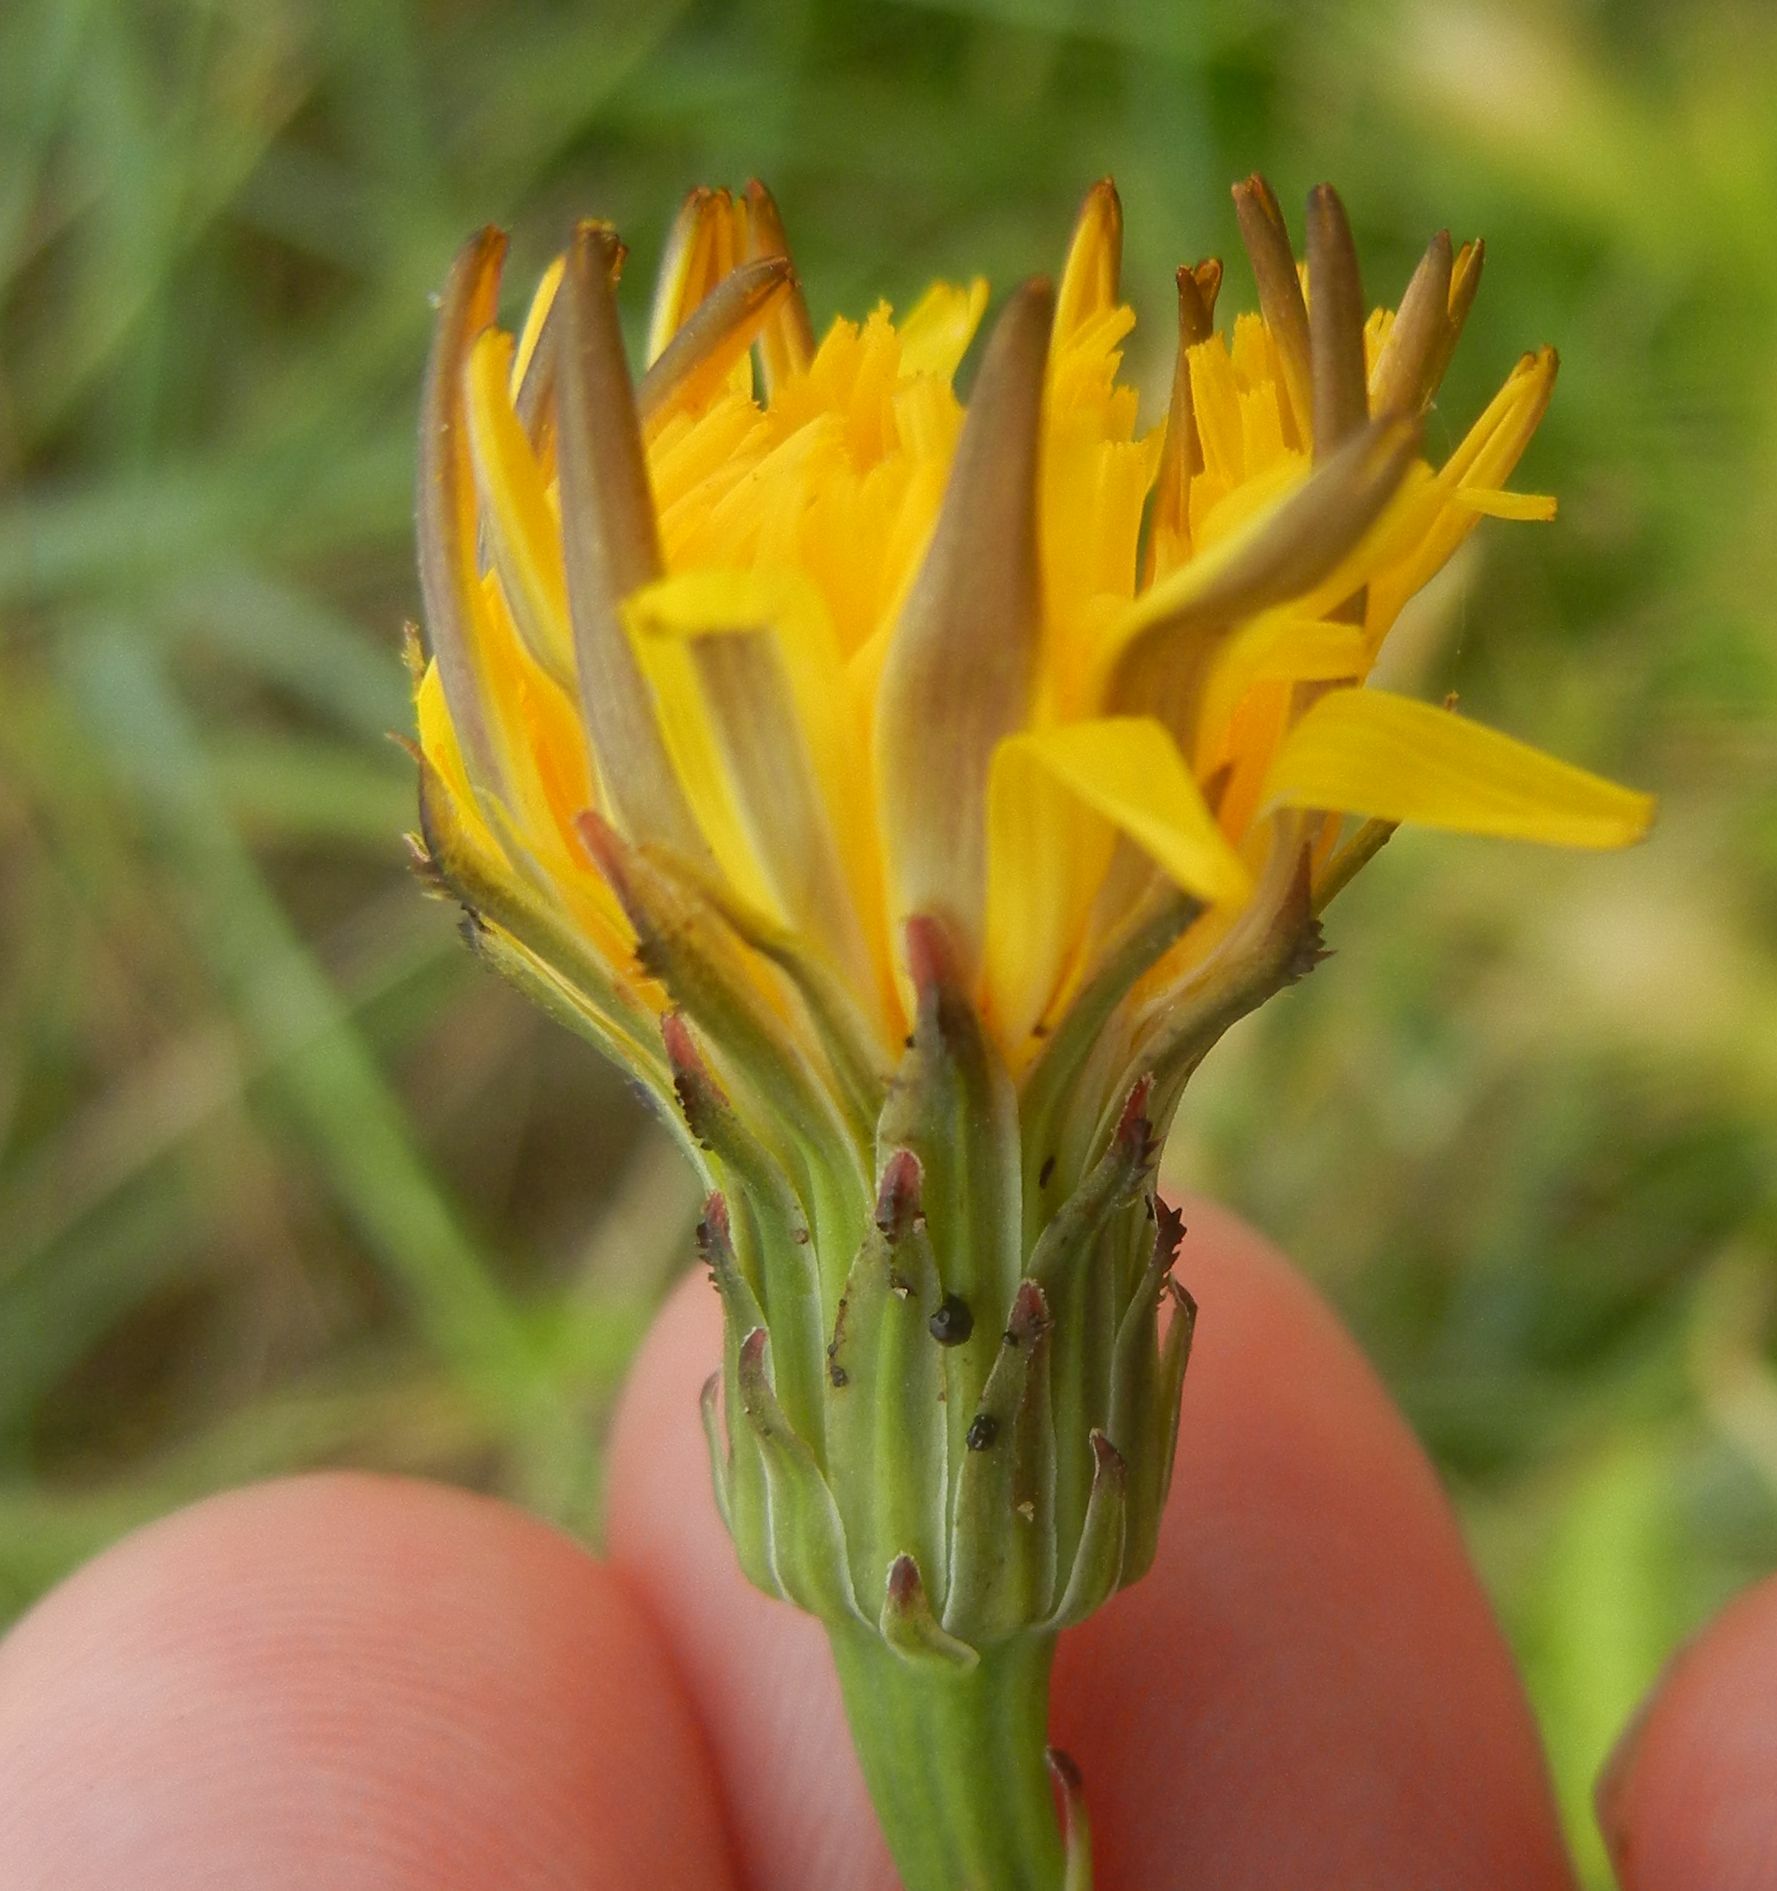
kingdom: Plantae
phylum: Tracheophyta
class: Magnoliopsida
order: Asterales
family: Asteraceae
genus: Hypochaeris
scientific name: Hypochaeris radicata
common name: Flatweed
